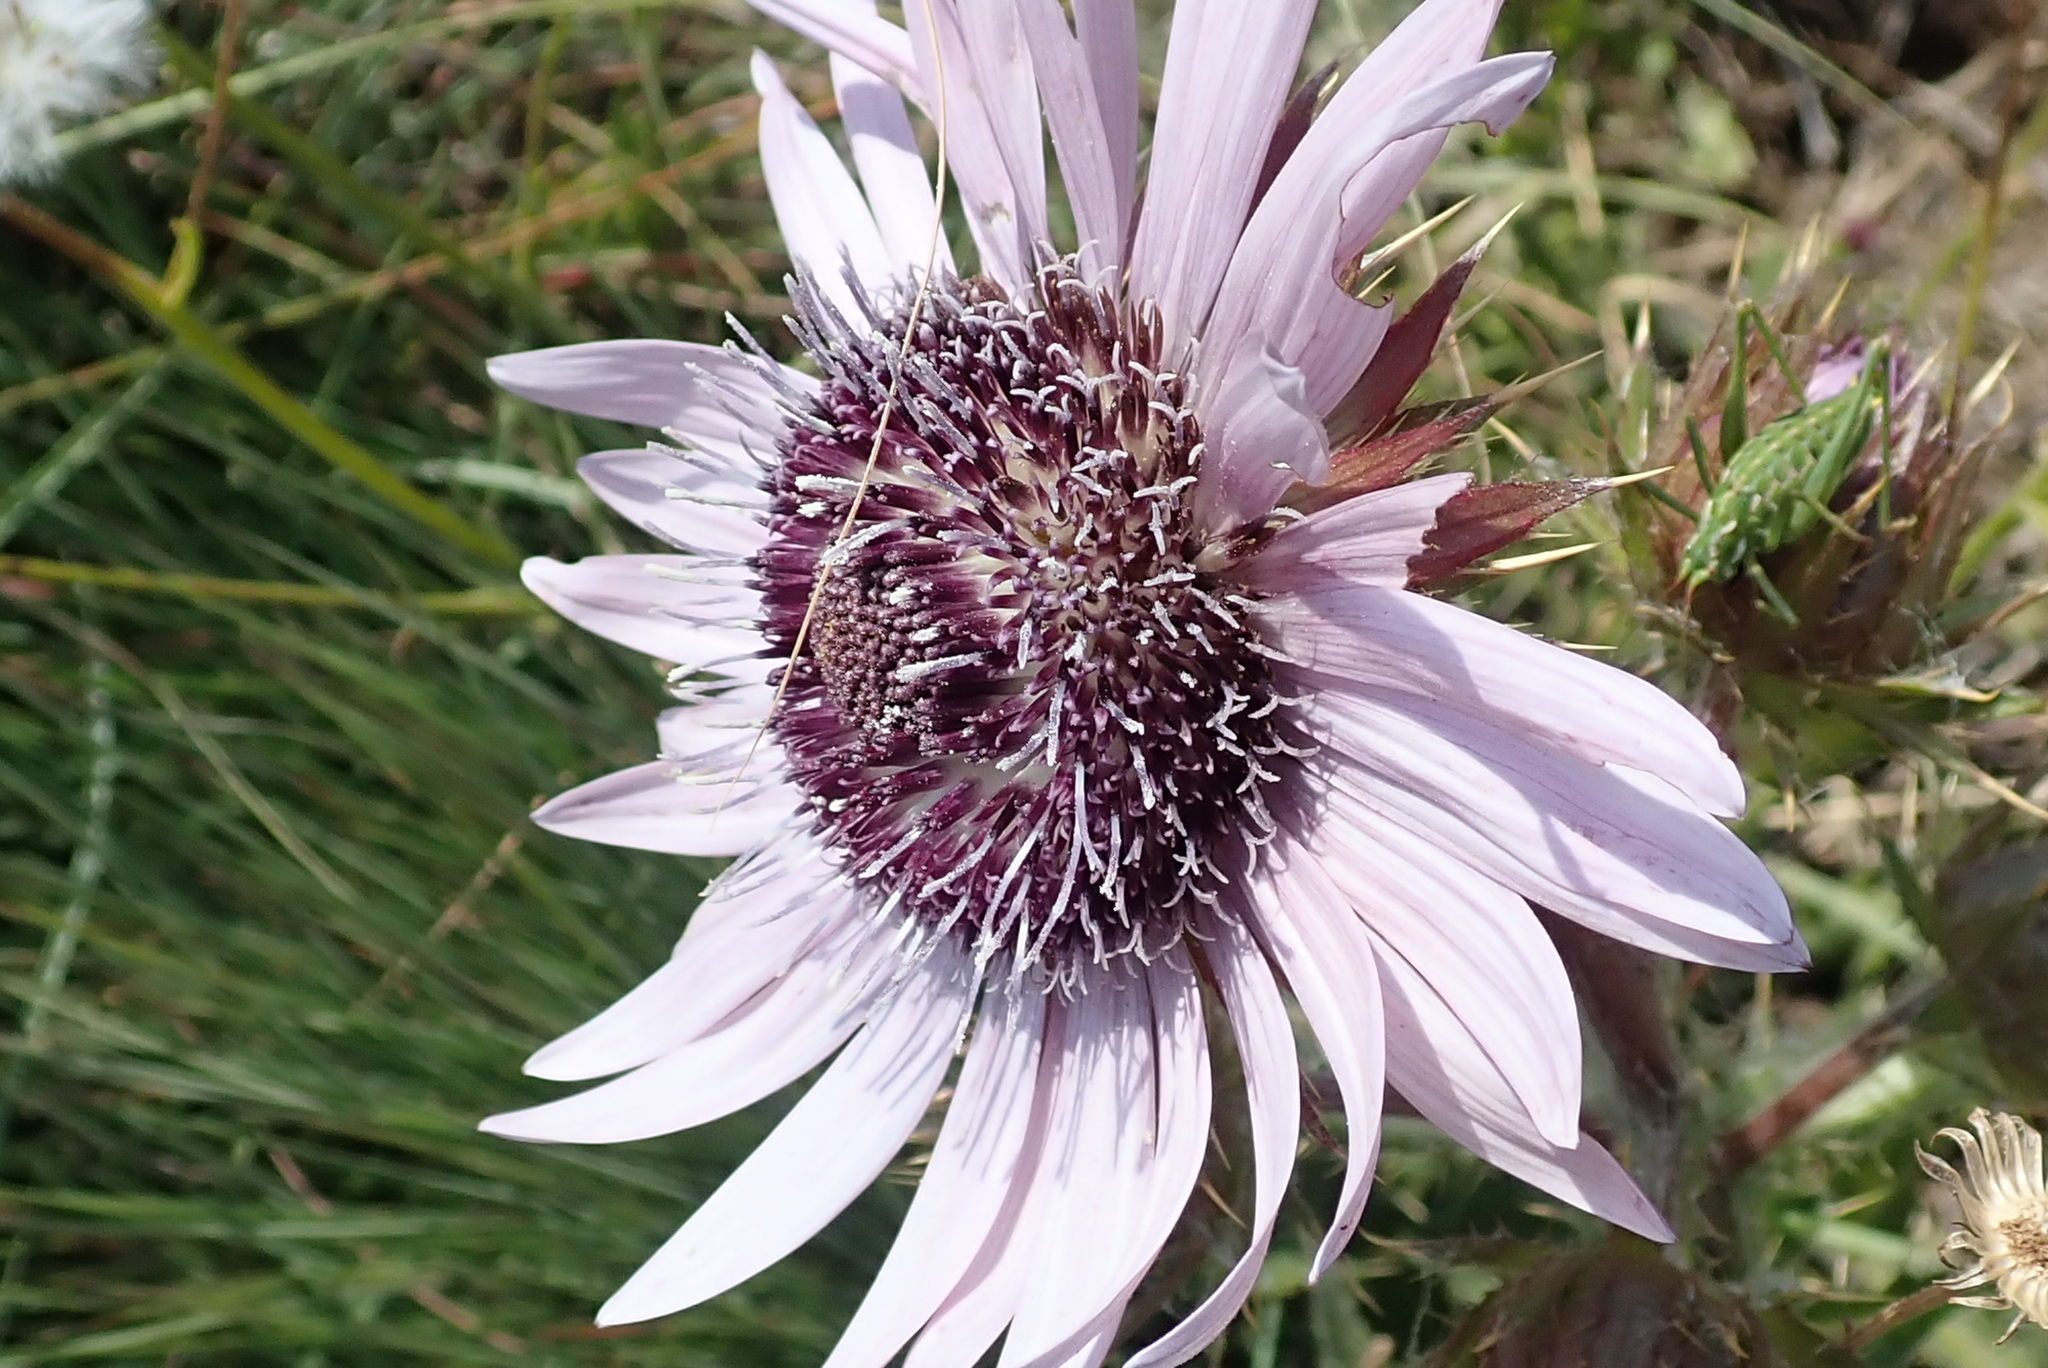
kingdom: Plantae
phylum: Tracheophyta
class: Magnoliopsida
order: Asterales
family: Asteraceae
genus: Berkheya
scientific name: Berkheya purpurea
